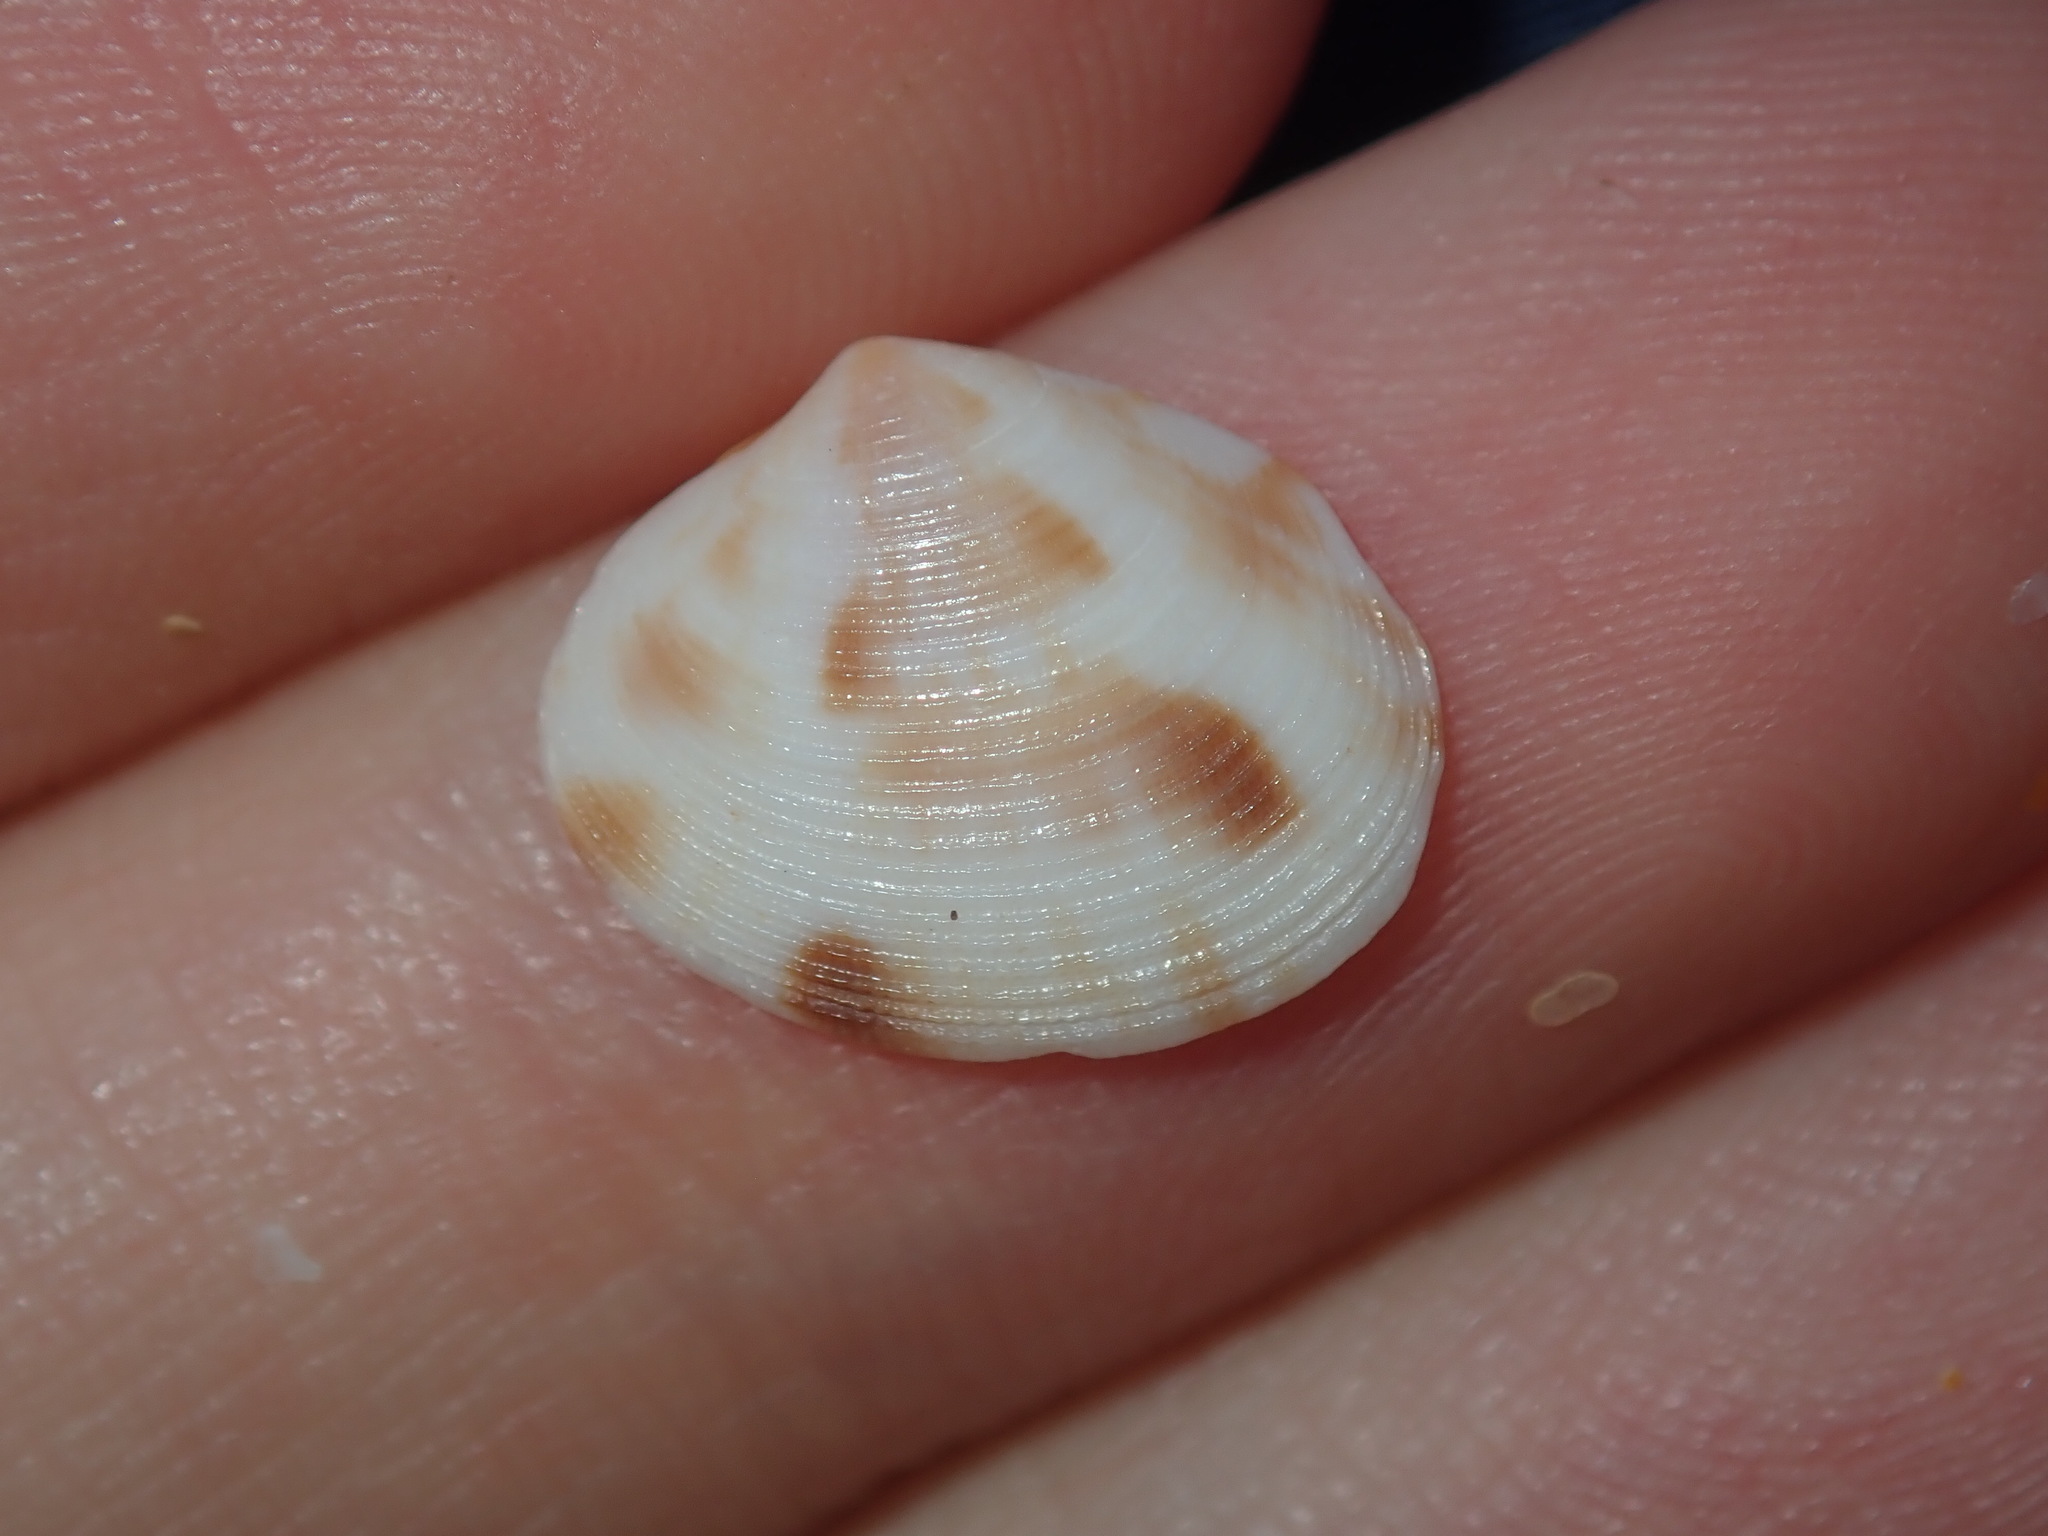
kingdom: Animalia
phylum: Mollusca
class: Bivalvia
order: Venerida
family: Veneridae
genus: Tawera
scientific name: Tawera lagopus
